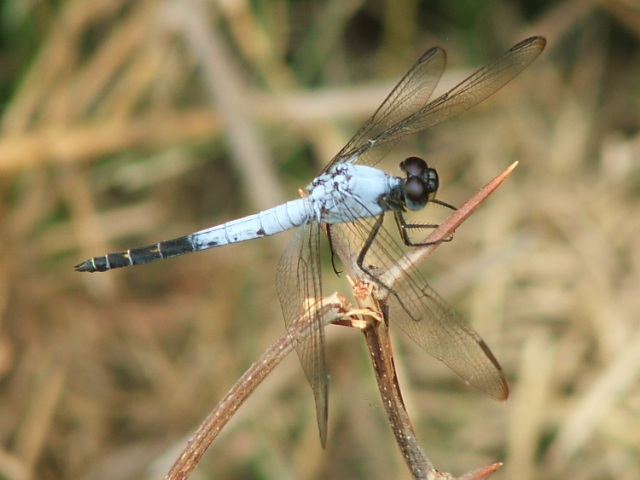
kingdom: Animalia
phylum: Arthropoda
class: Insecta
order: Odonata
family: Libellulidae
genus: Nesciothemis
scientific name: Nesciothemis farinosa
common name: Eastern blacktail
